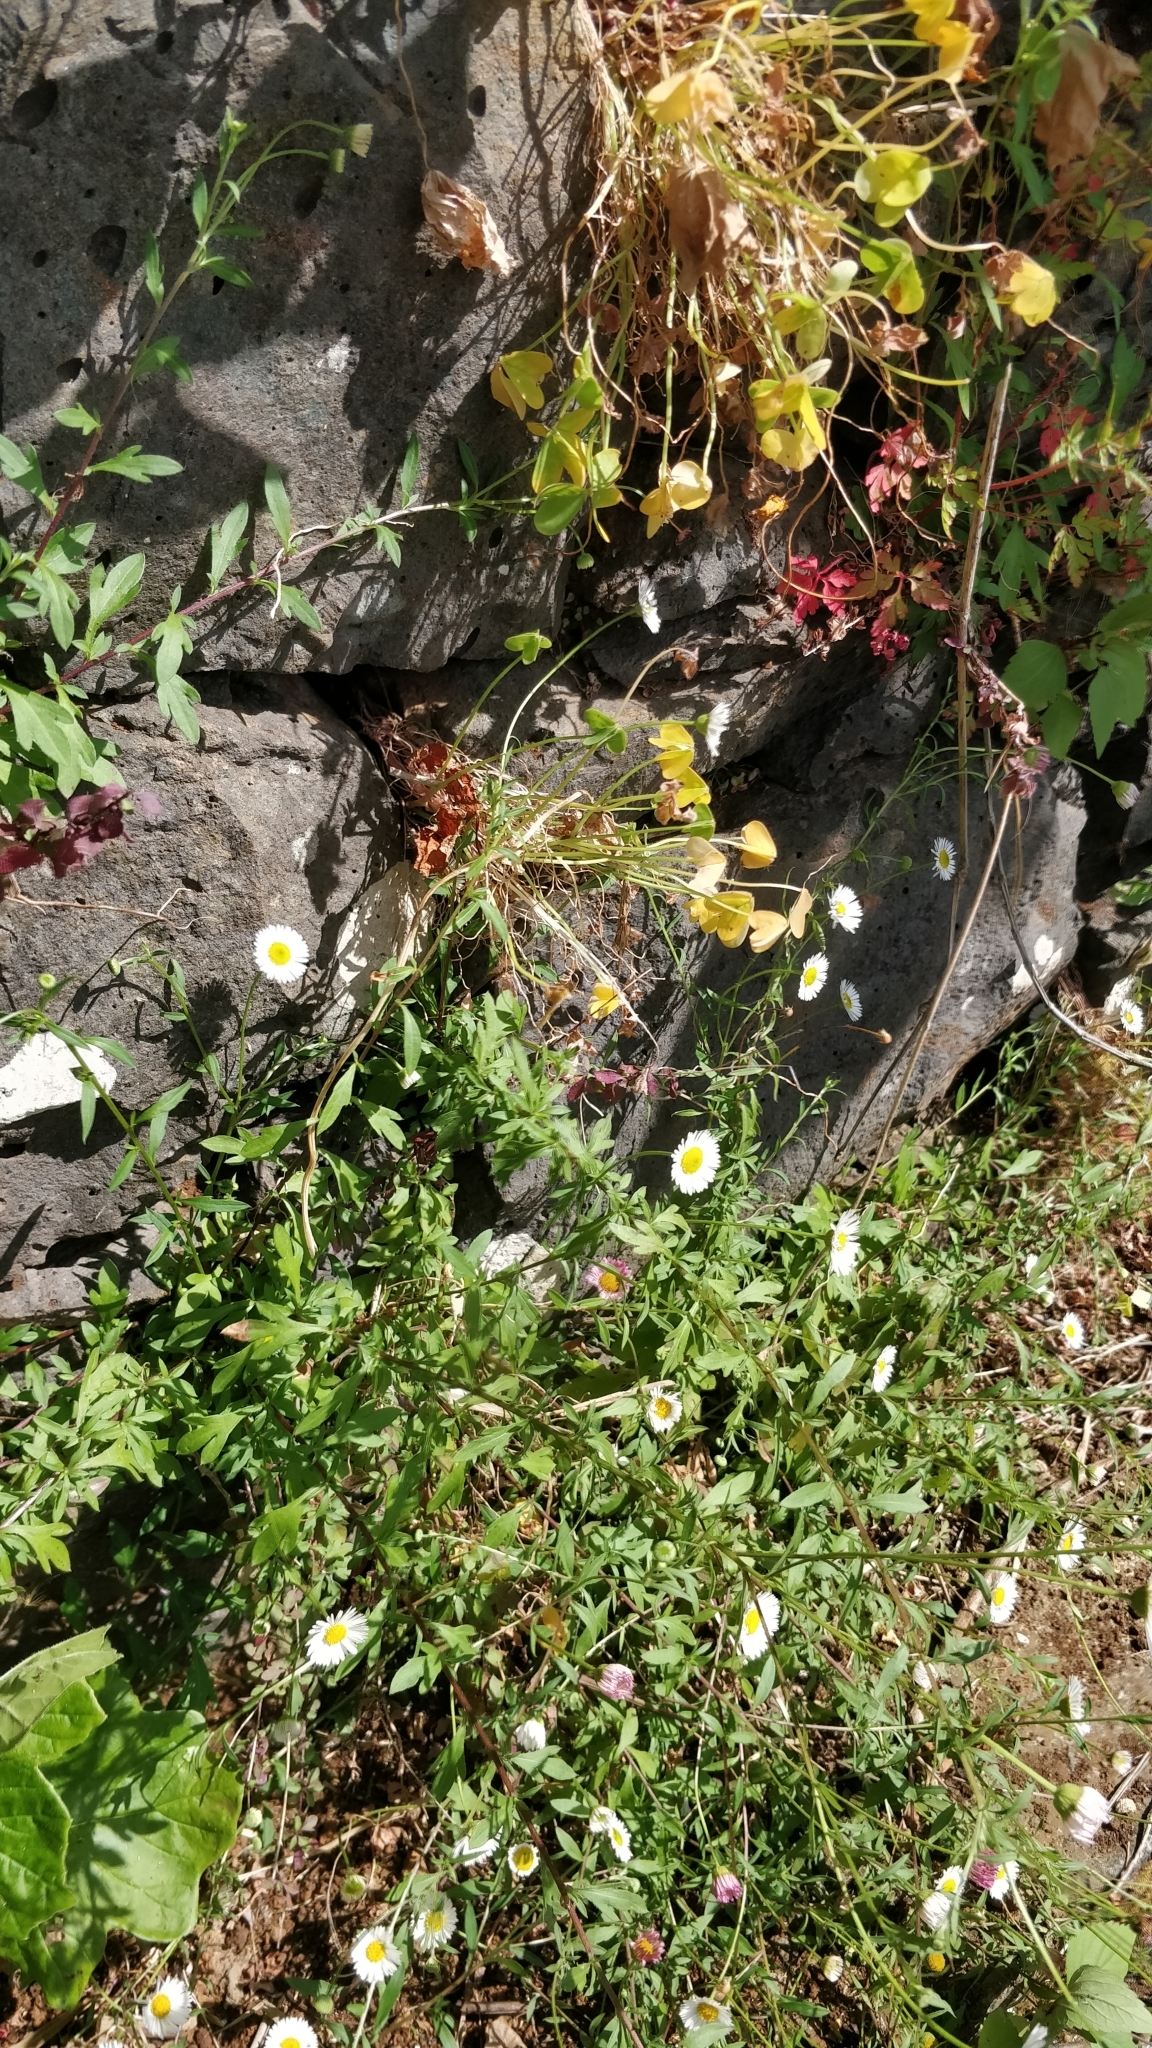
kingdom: Plantae
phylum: Tracheophyta
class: Magnoliopsida
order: Asterales
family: Asteraceae
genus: Erigeron
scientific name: Erigeron karvinskianus
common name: Mexican fleabane
